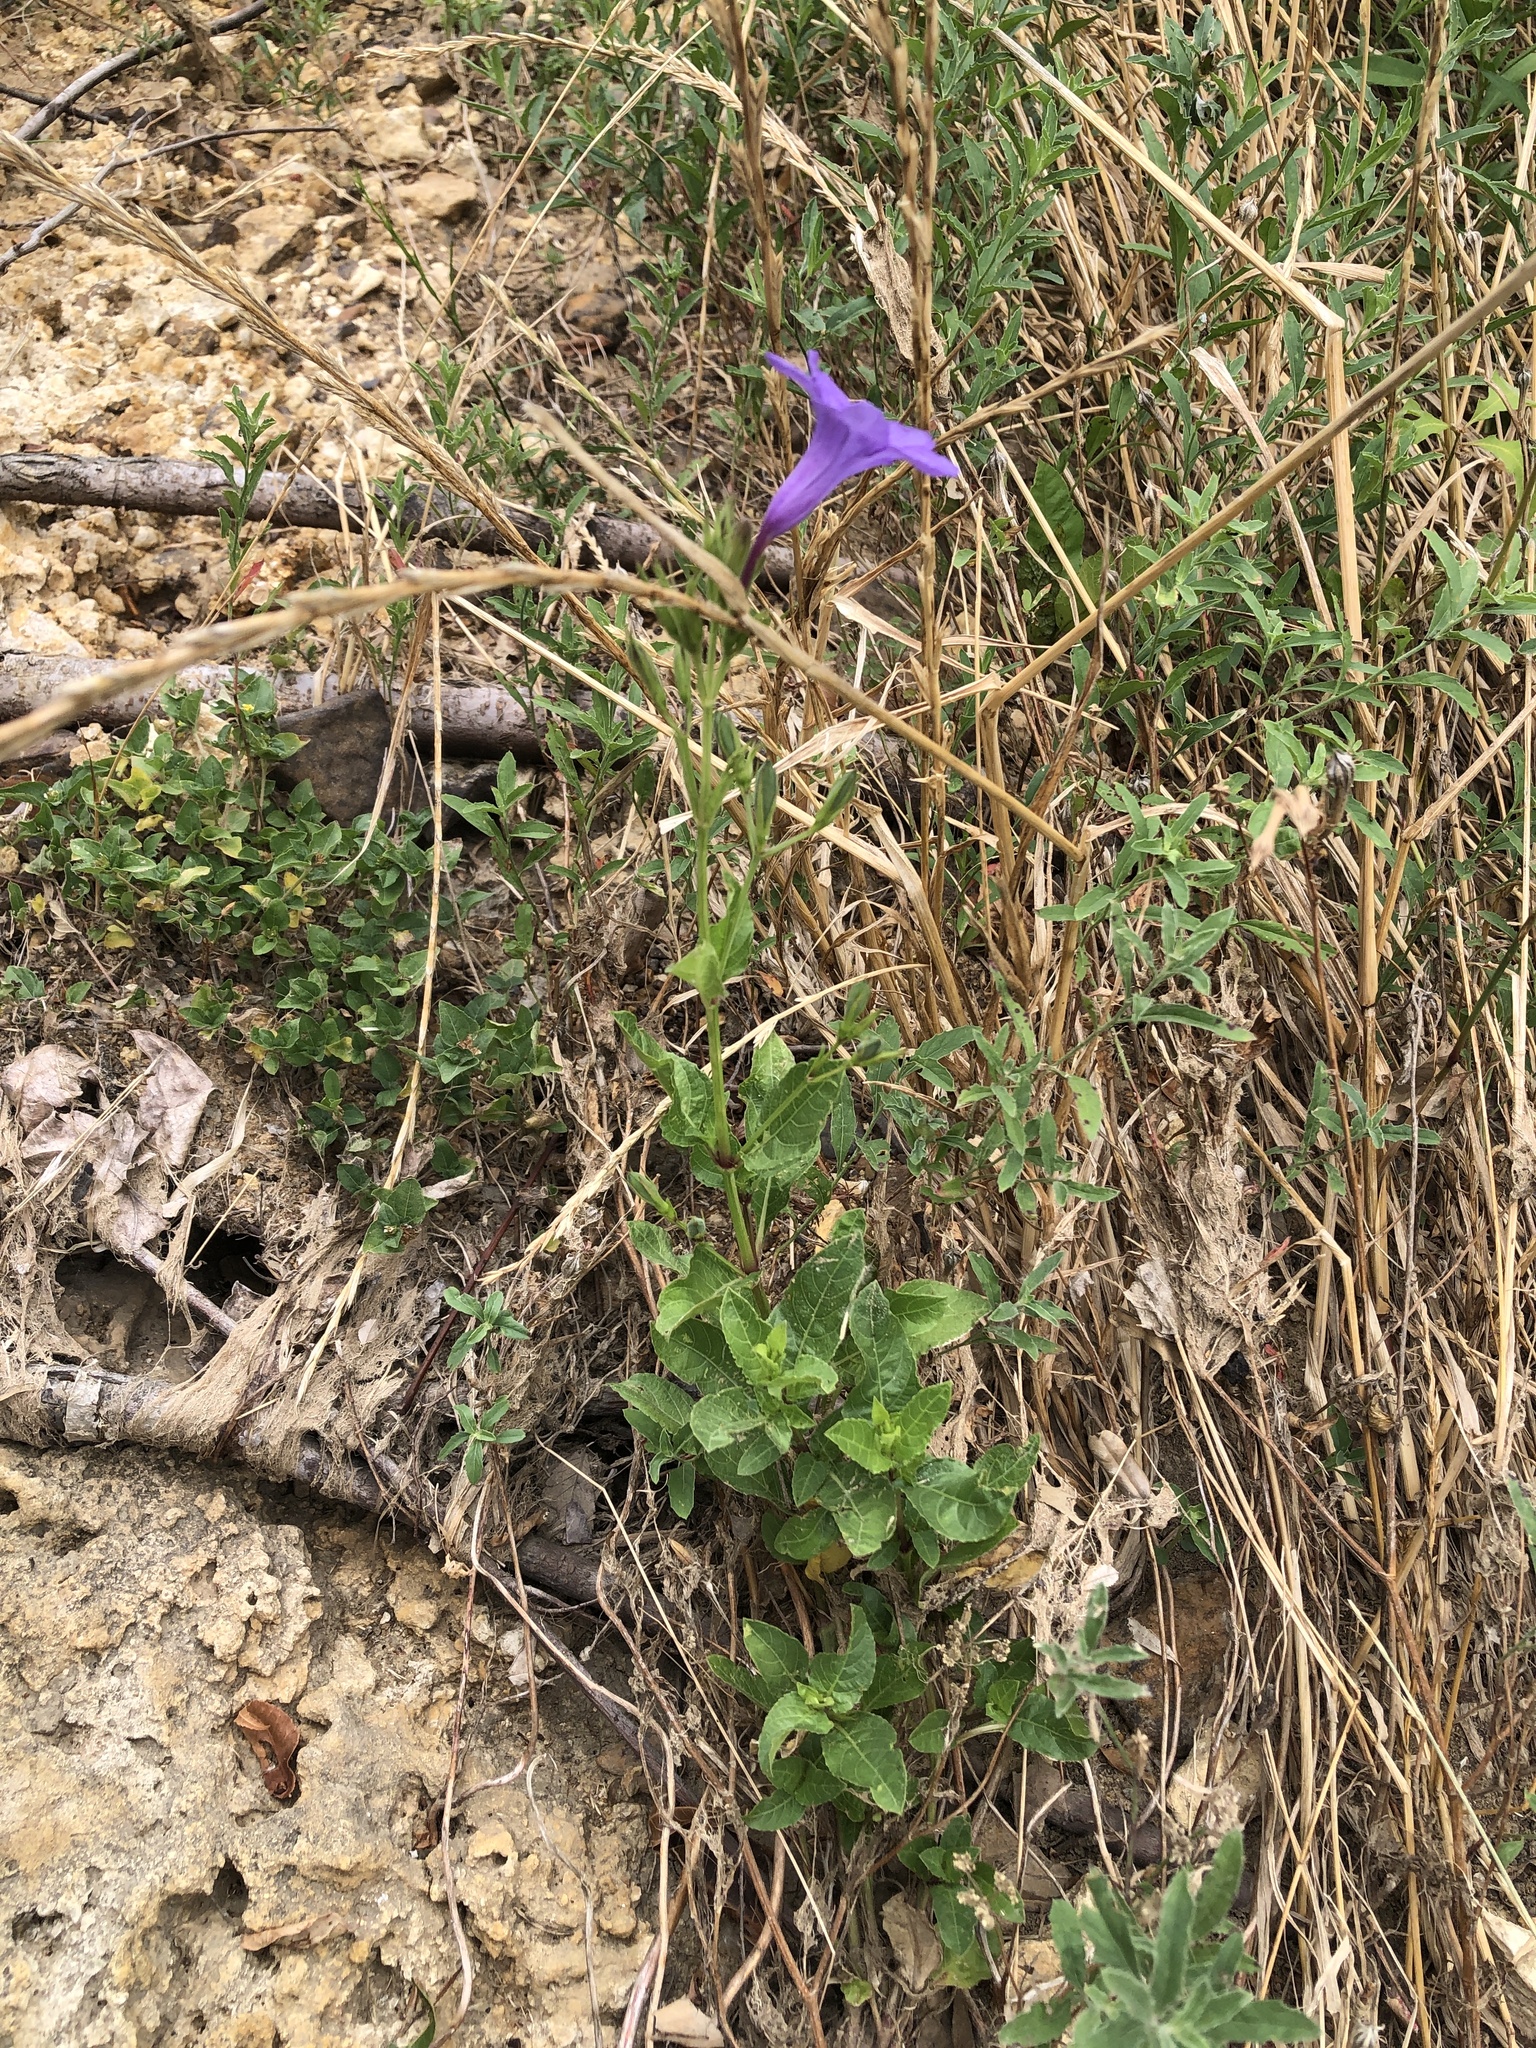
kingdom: Plantae
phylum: Tracheophyta
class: Magnoliopsida
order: Lamiales
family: Acanthaceae
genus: Ruellia
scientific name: Ruellia ciliatiflora
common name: Hairyflower wild petunia
